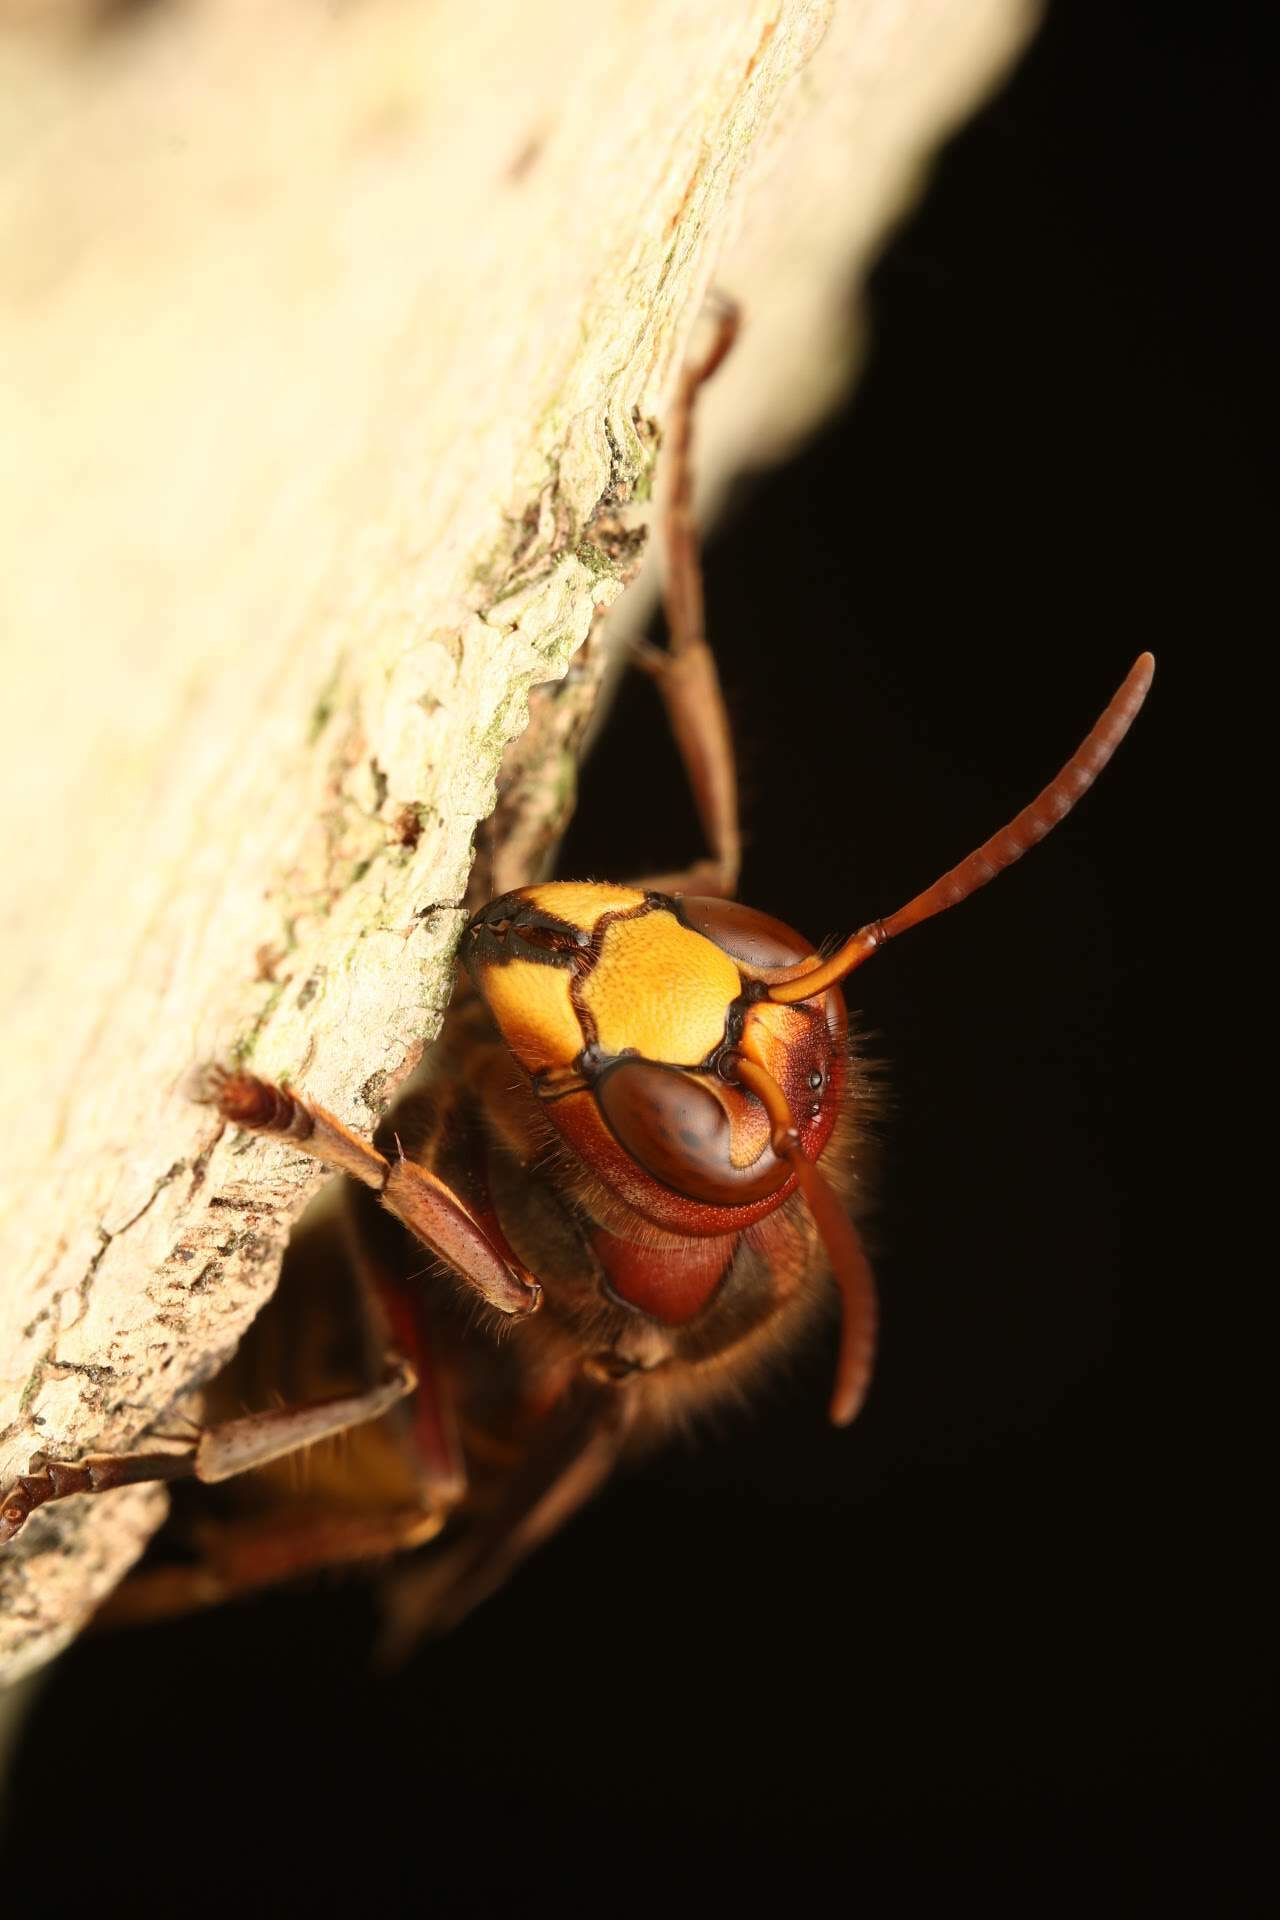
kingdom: Animalia
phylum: Arthropoda
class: Insecta
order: Hymenoptera
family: Vespidae
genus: Vespa
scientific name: Vespa crabro
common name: Hornet
